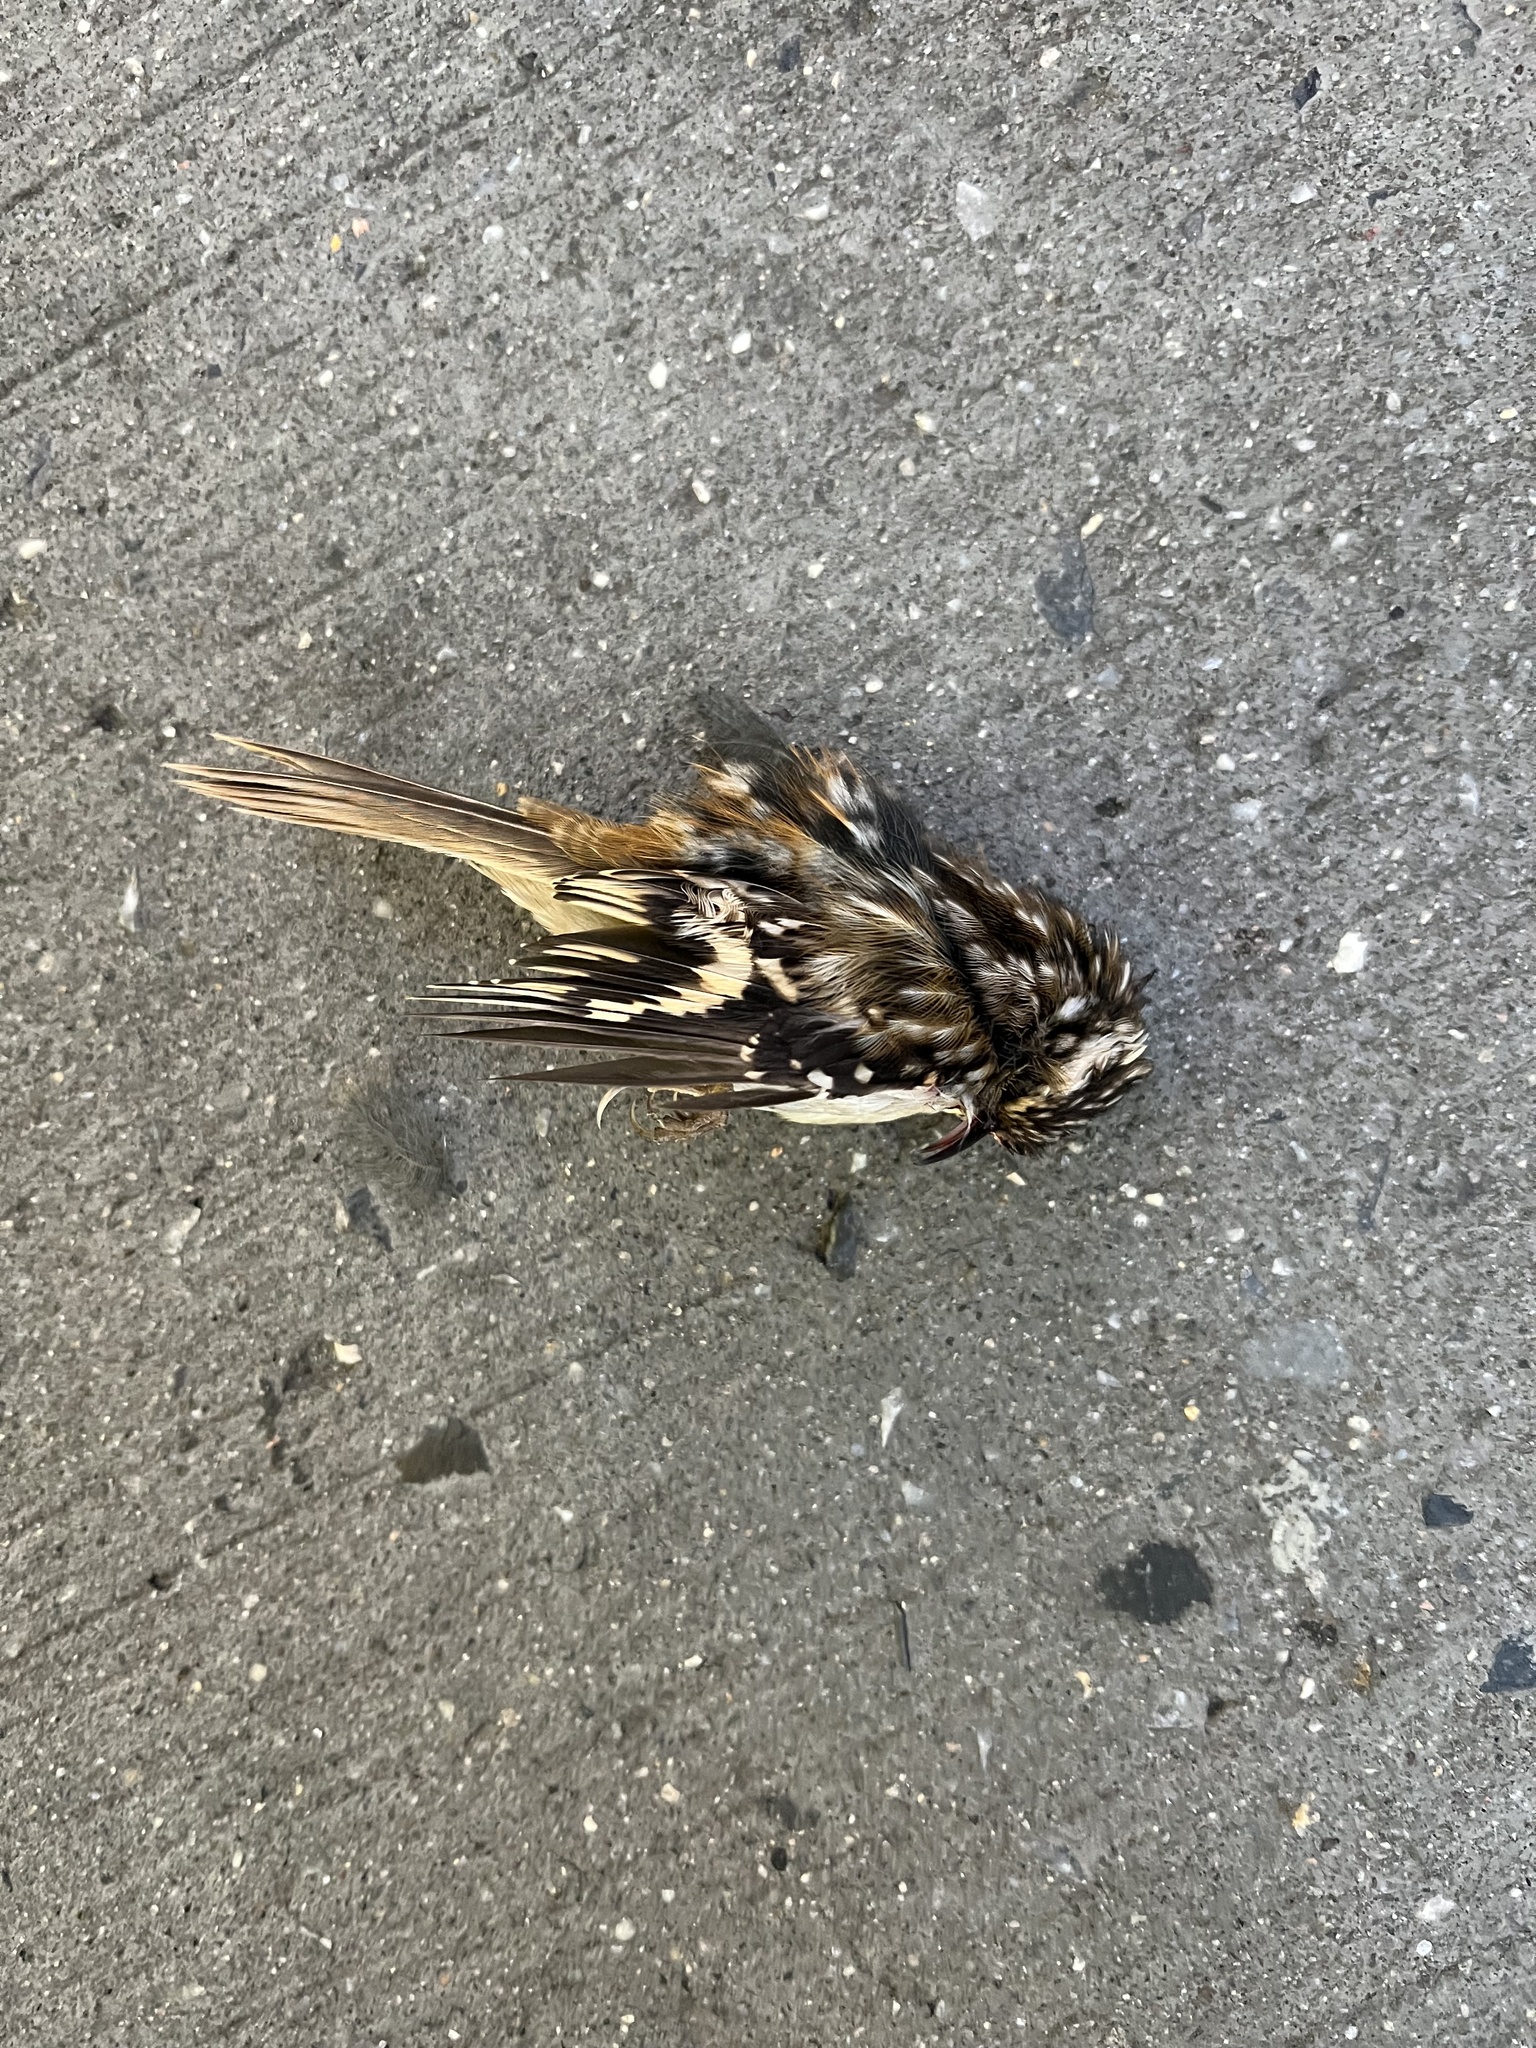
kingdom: Animalia
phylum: Chordata
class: Aves
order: Passeriformes
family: Certhiidae
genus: Certhia
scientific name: Certhia americana
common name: Brown creeper
